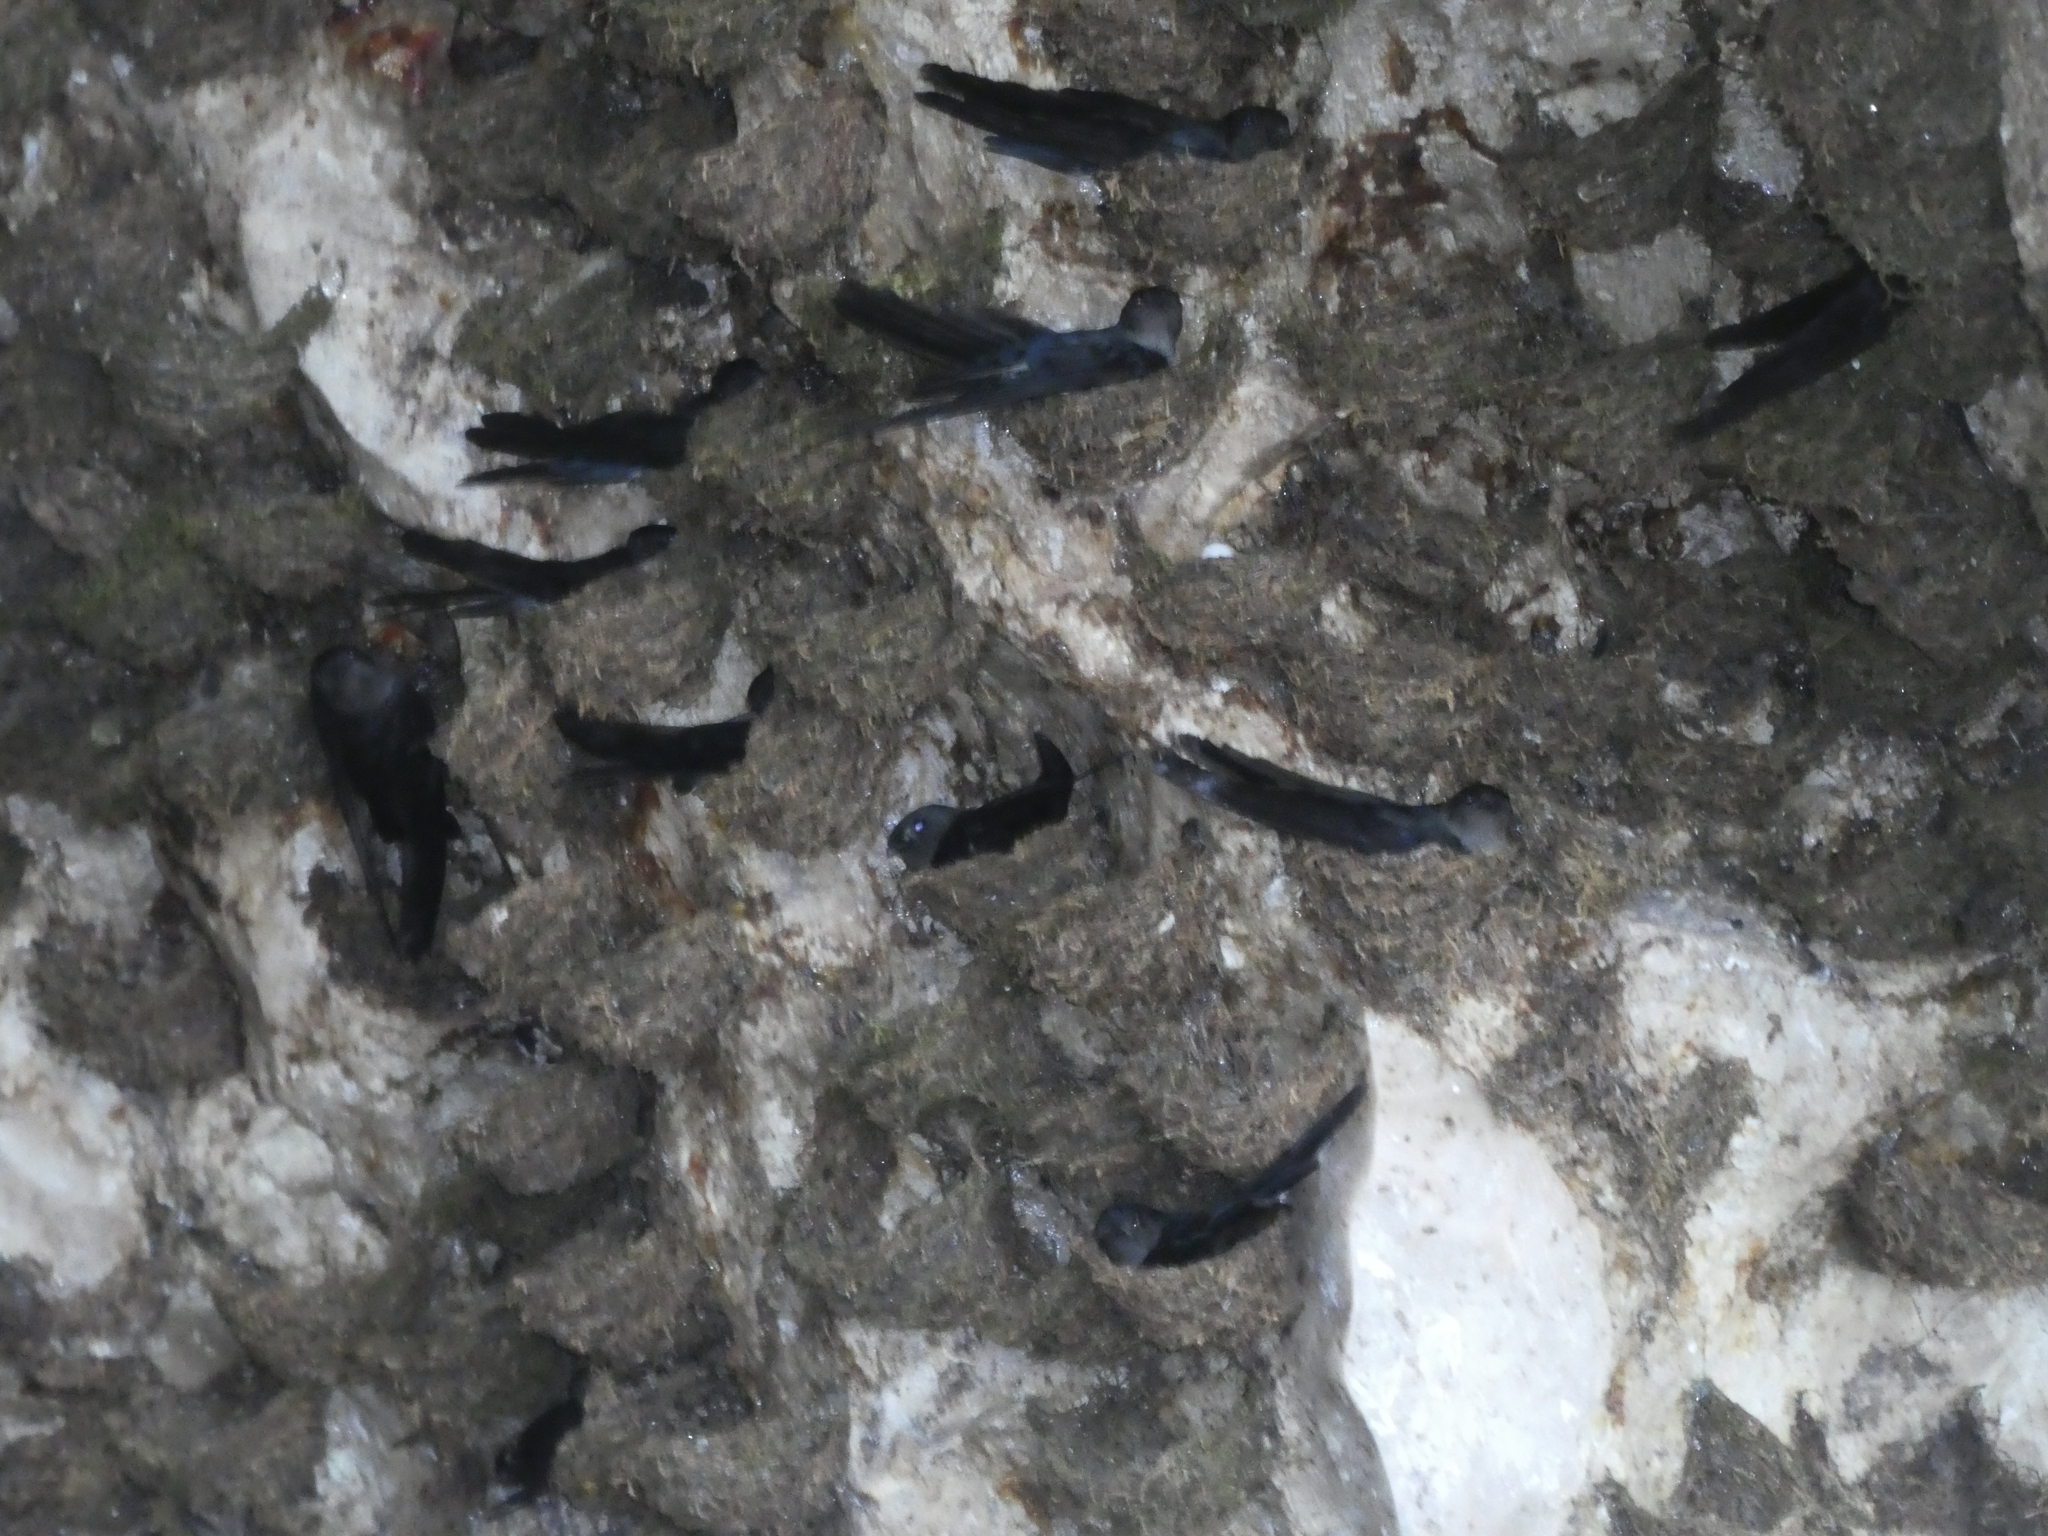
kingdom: Animalia
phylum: Chordata
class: Aves
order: Apodiformes
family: Apodidae
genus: Collocalia
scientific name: Collocalia affinis
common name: Plume-toed swiftlet
